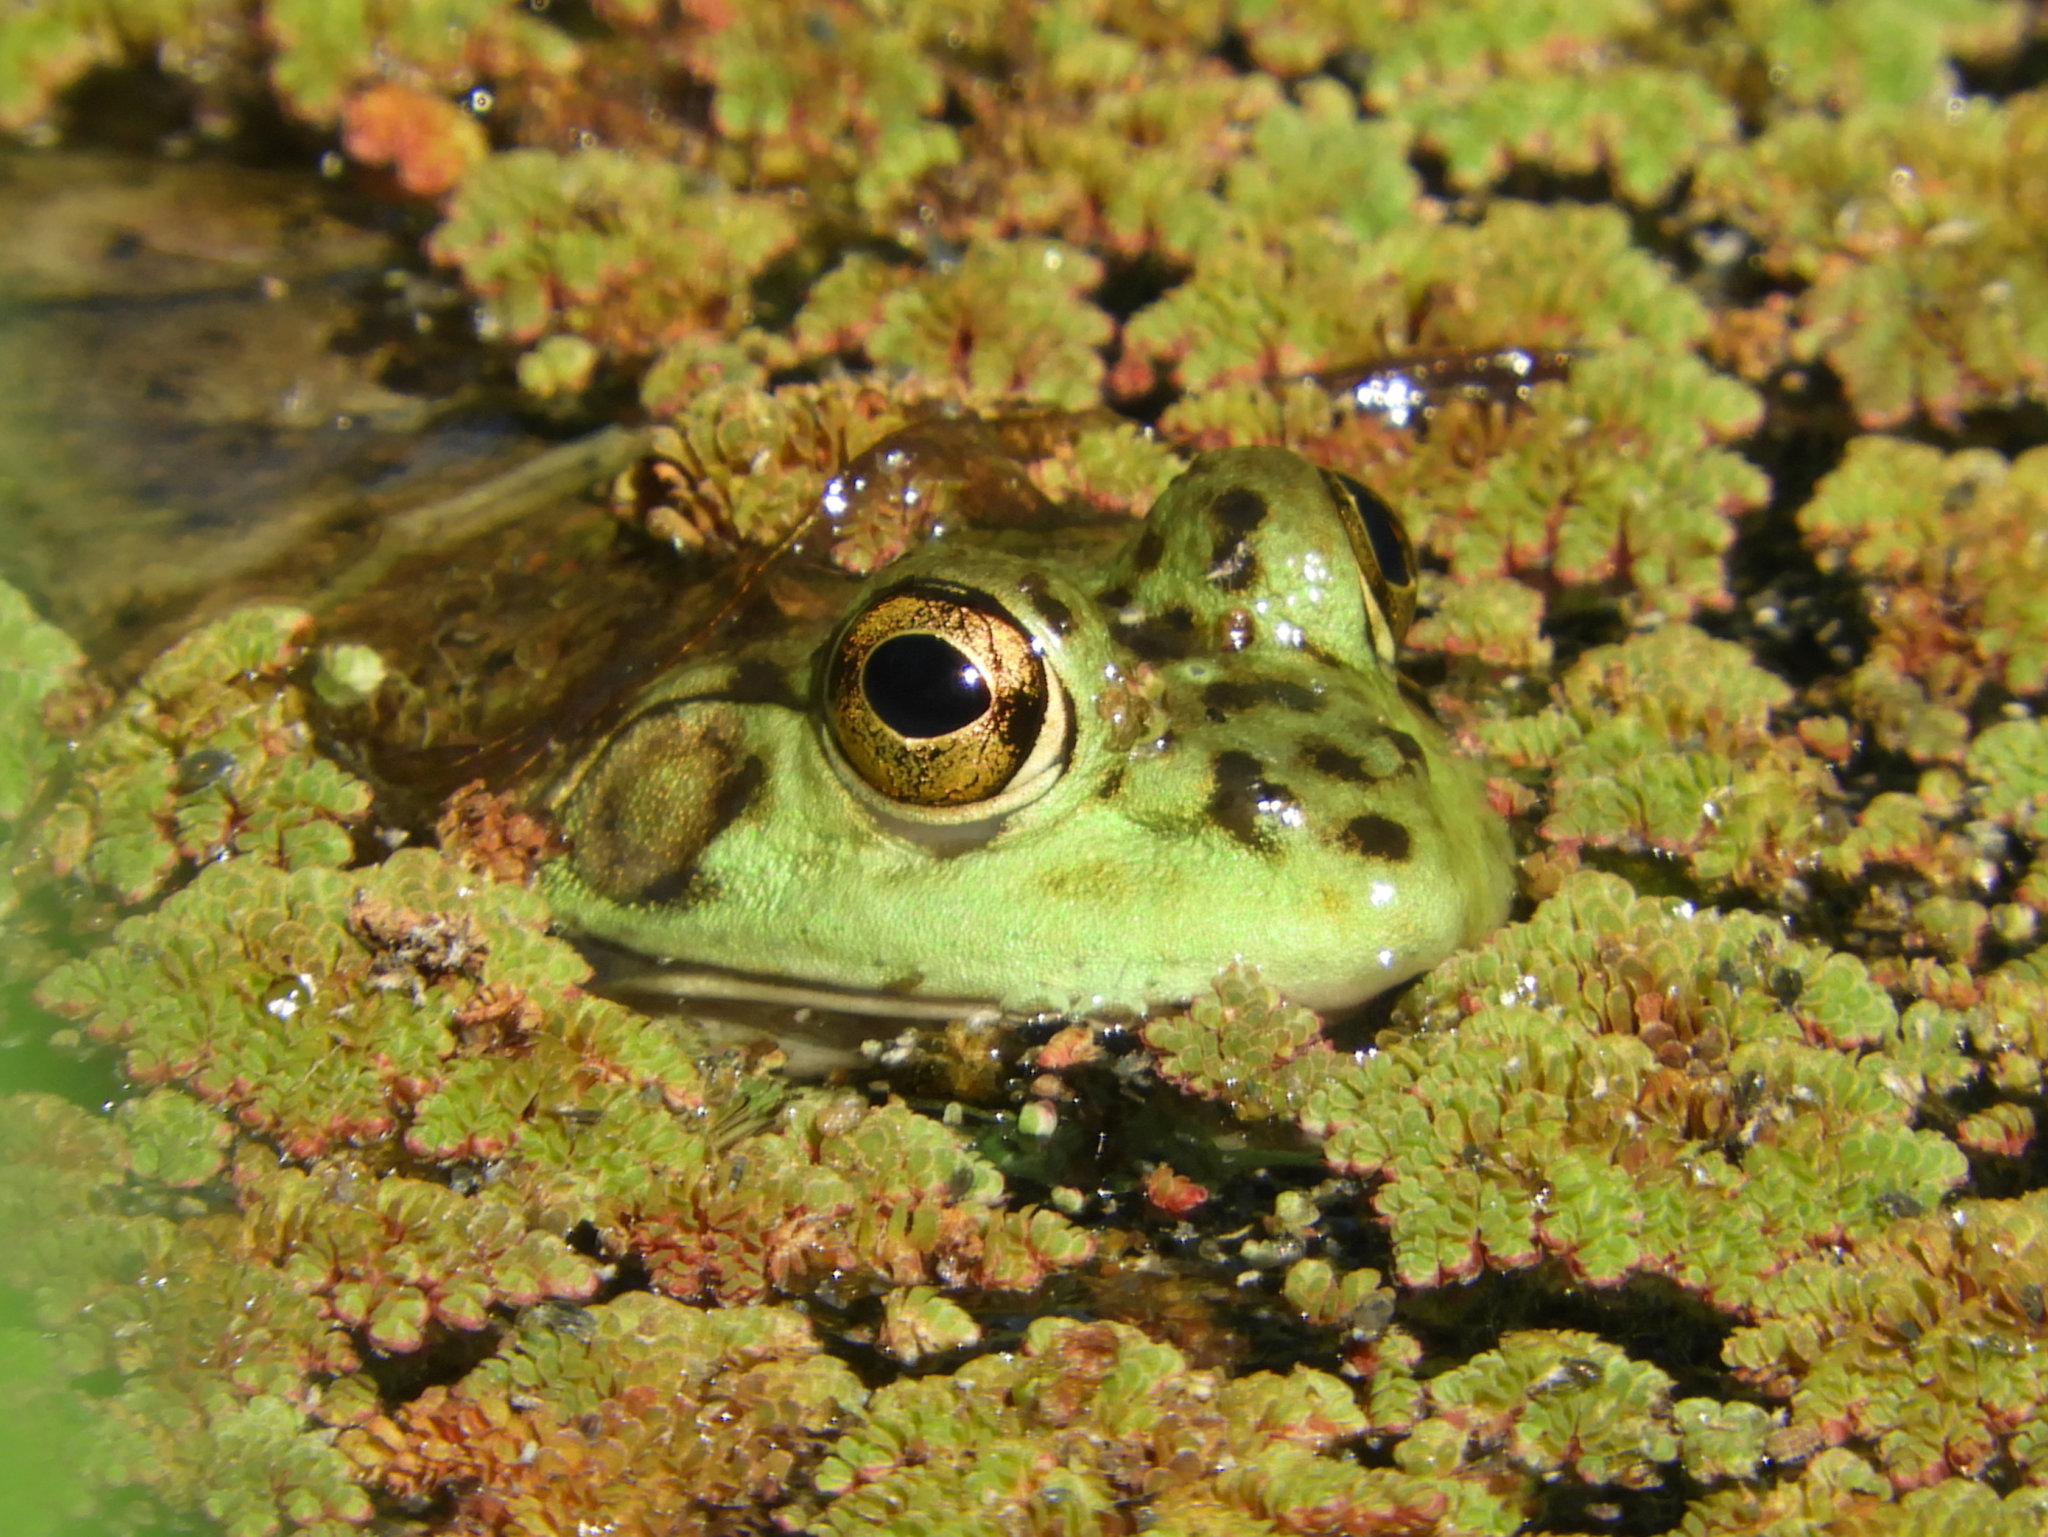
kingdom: Animalia
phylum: Chordata
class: Amphibia
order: Anura
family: Ranidae
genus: Lithobates
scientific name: Lithobates catesbeianus
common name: American bullfrog
